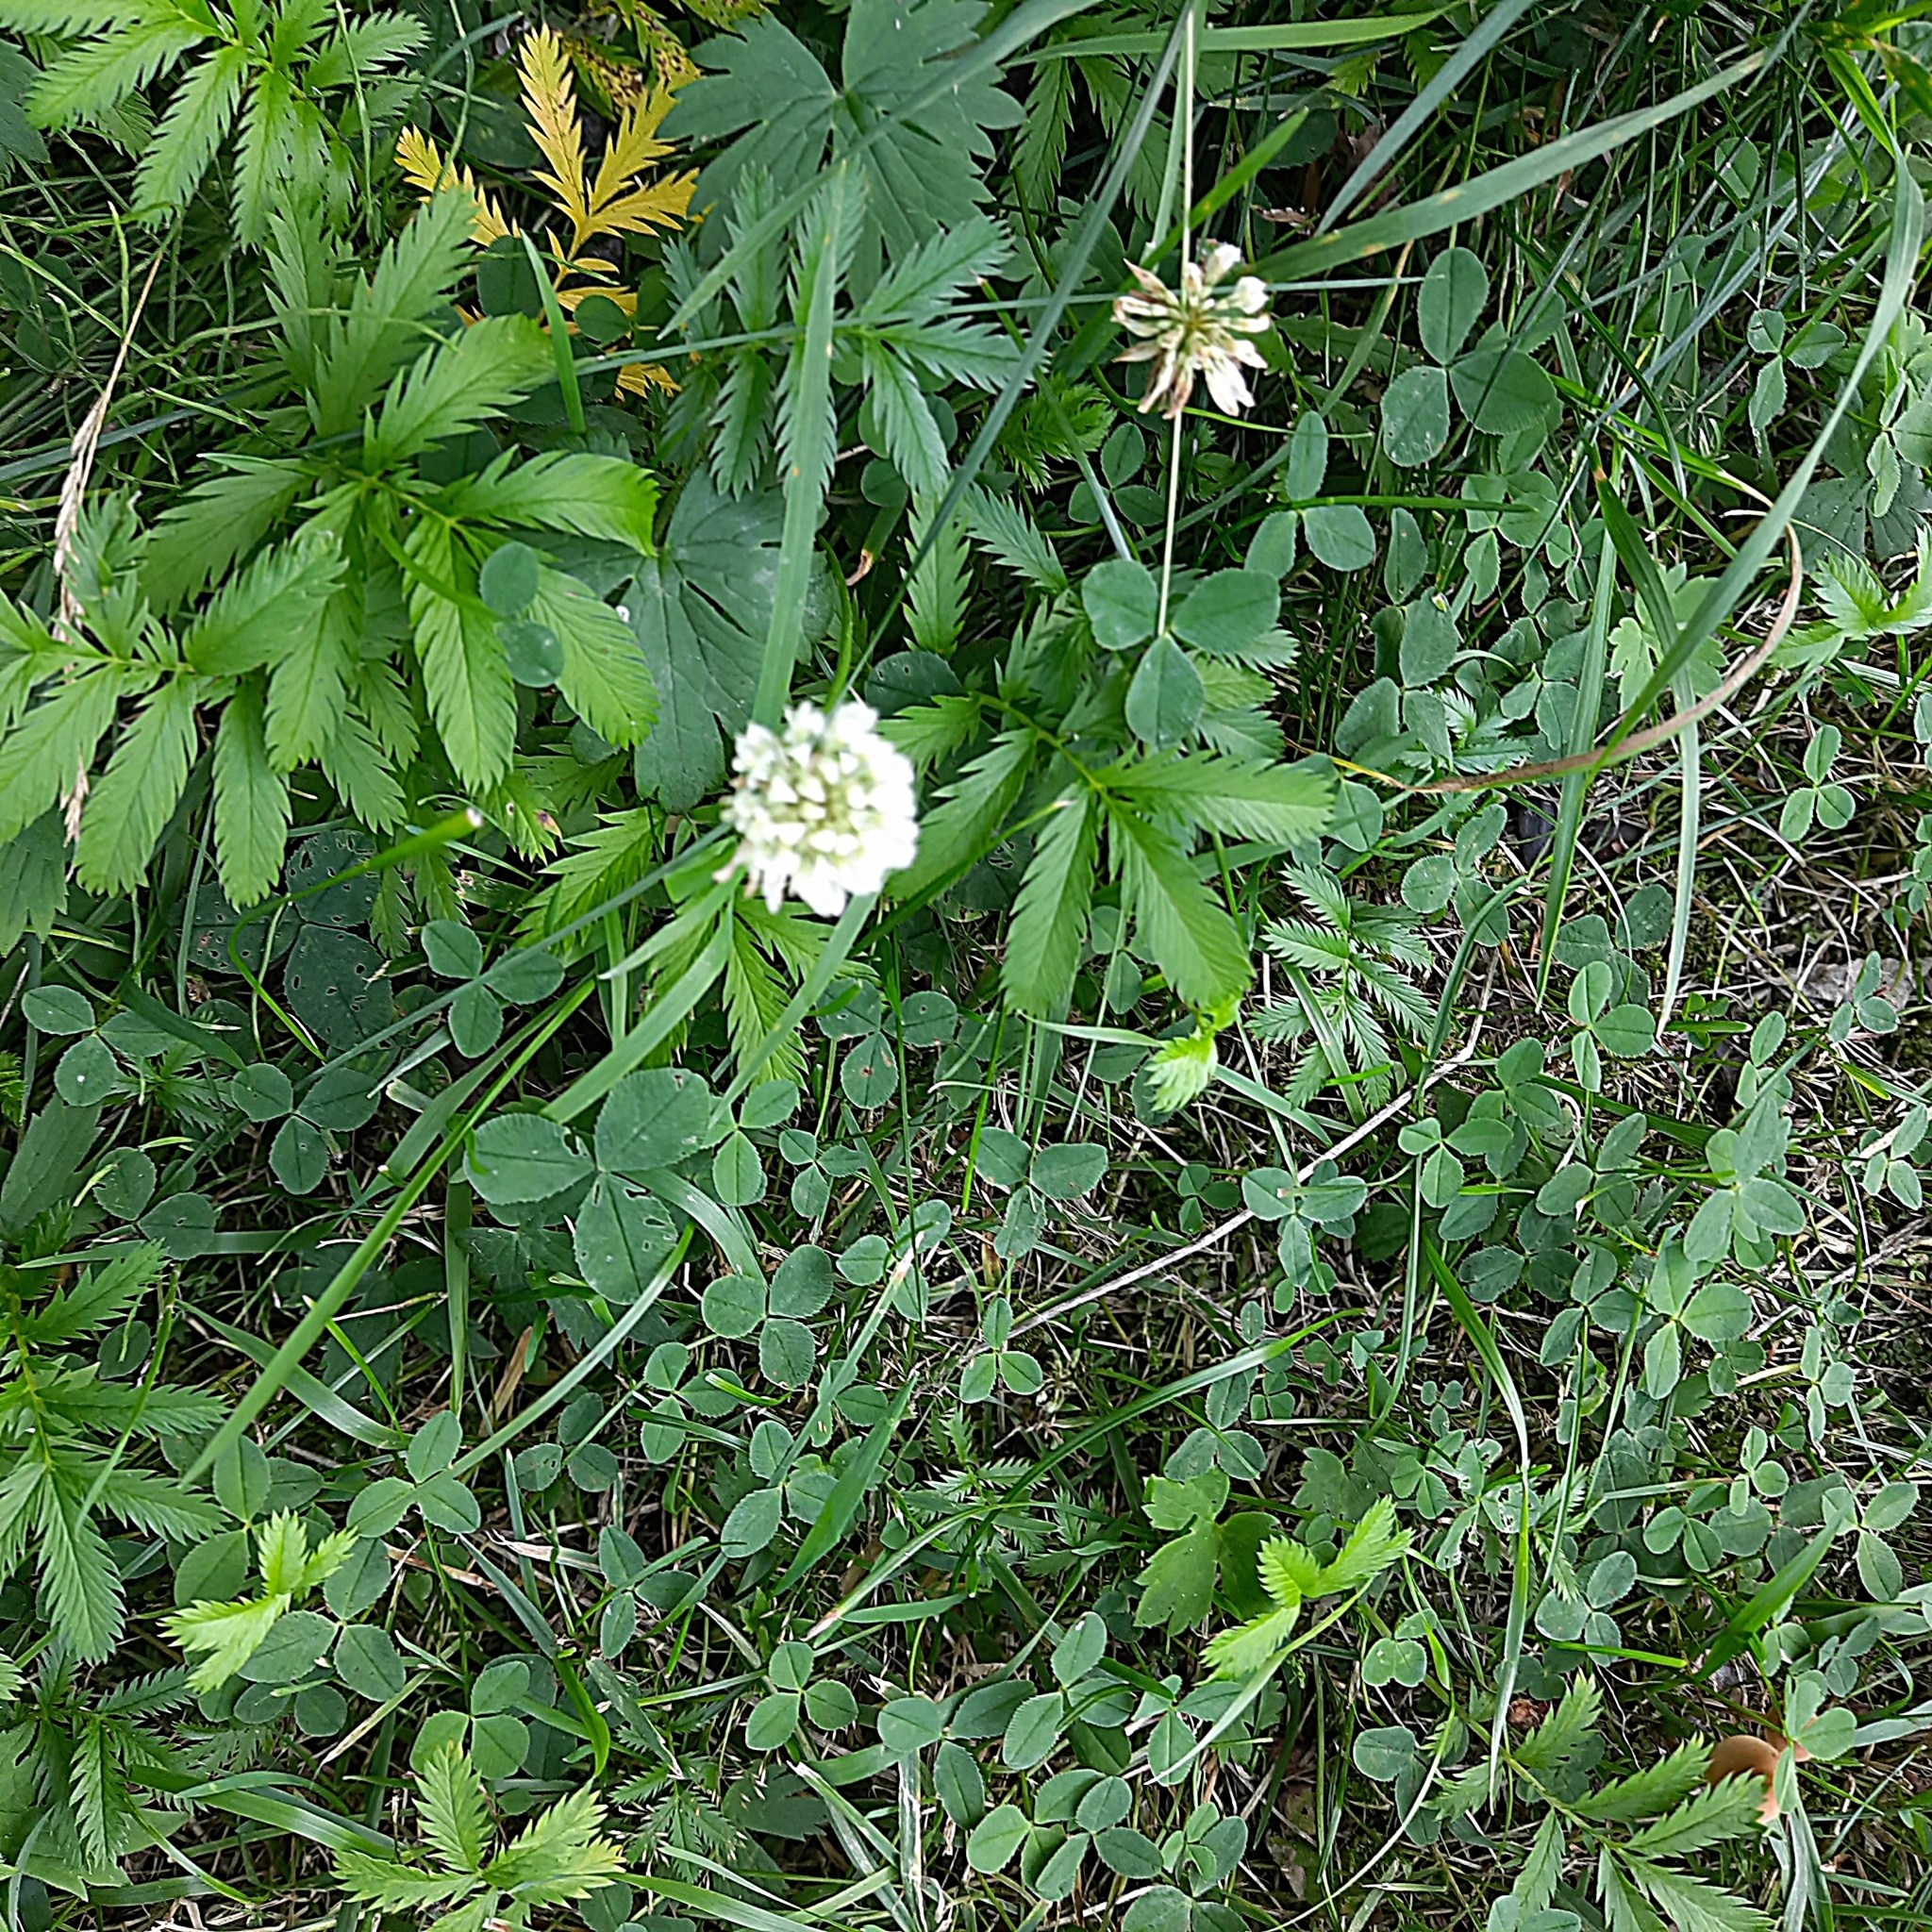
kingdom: Plantae
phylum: Tracheophyta
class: Magnoliopsida
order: Fabales
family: Fabaceae
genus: Trifolium
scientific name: Trifolium repens
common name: White clover
